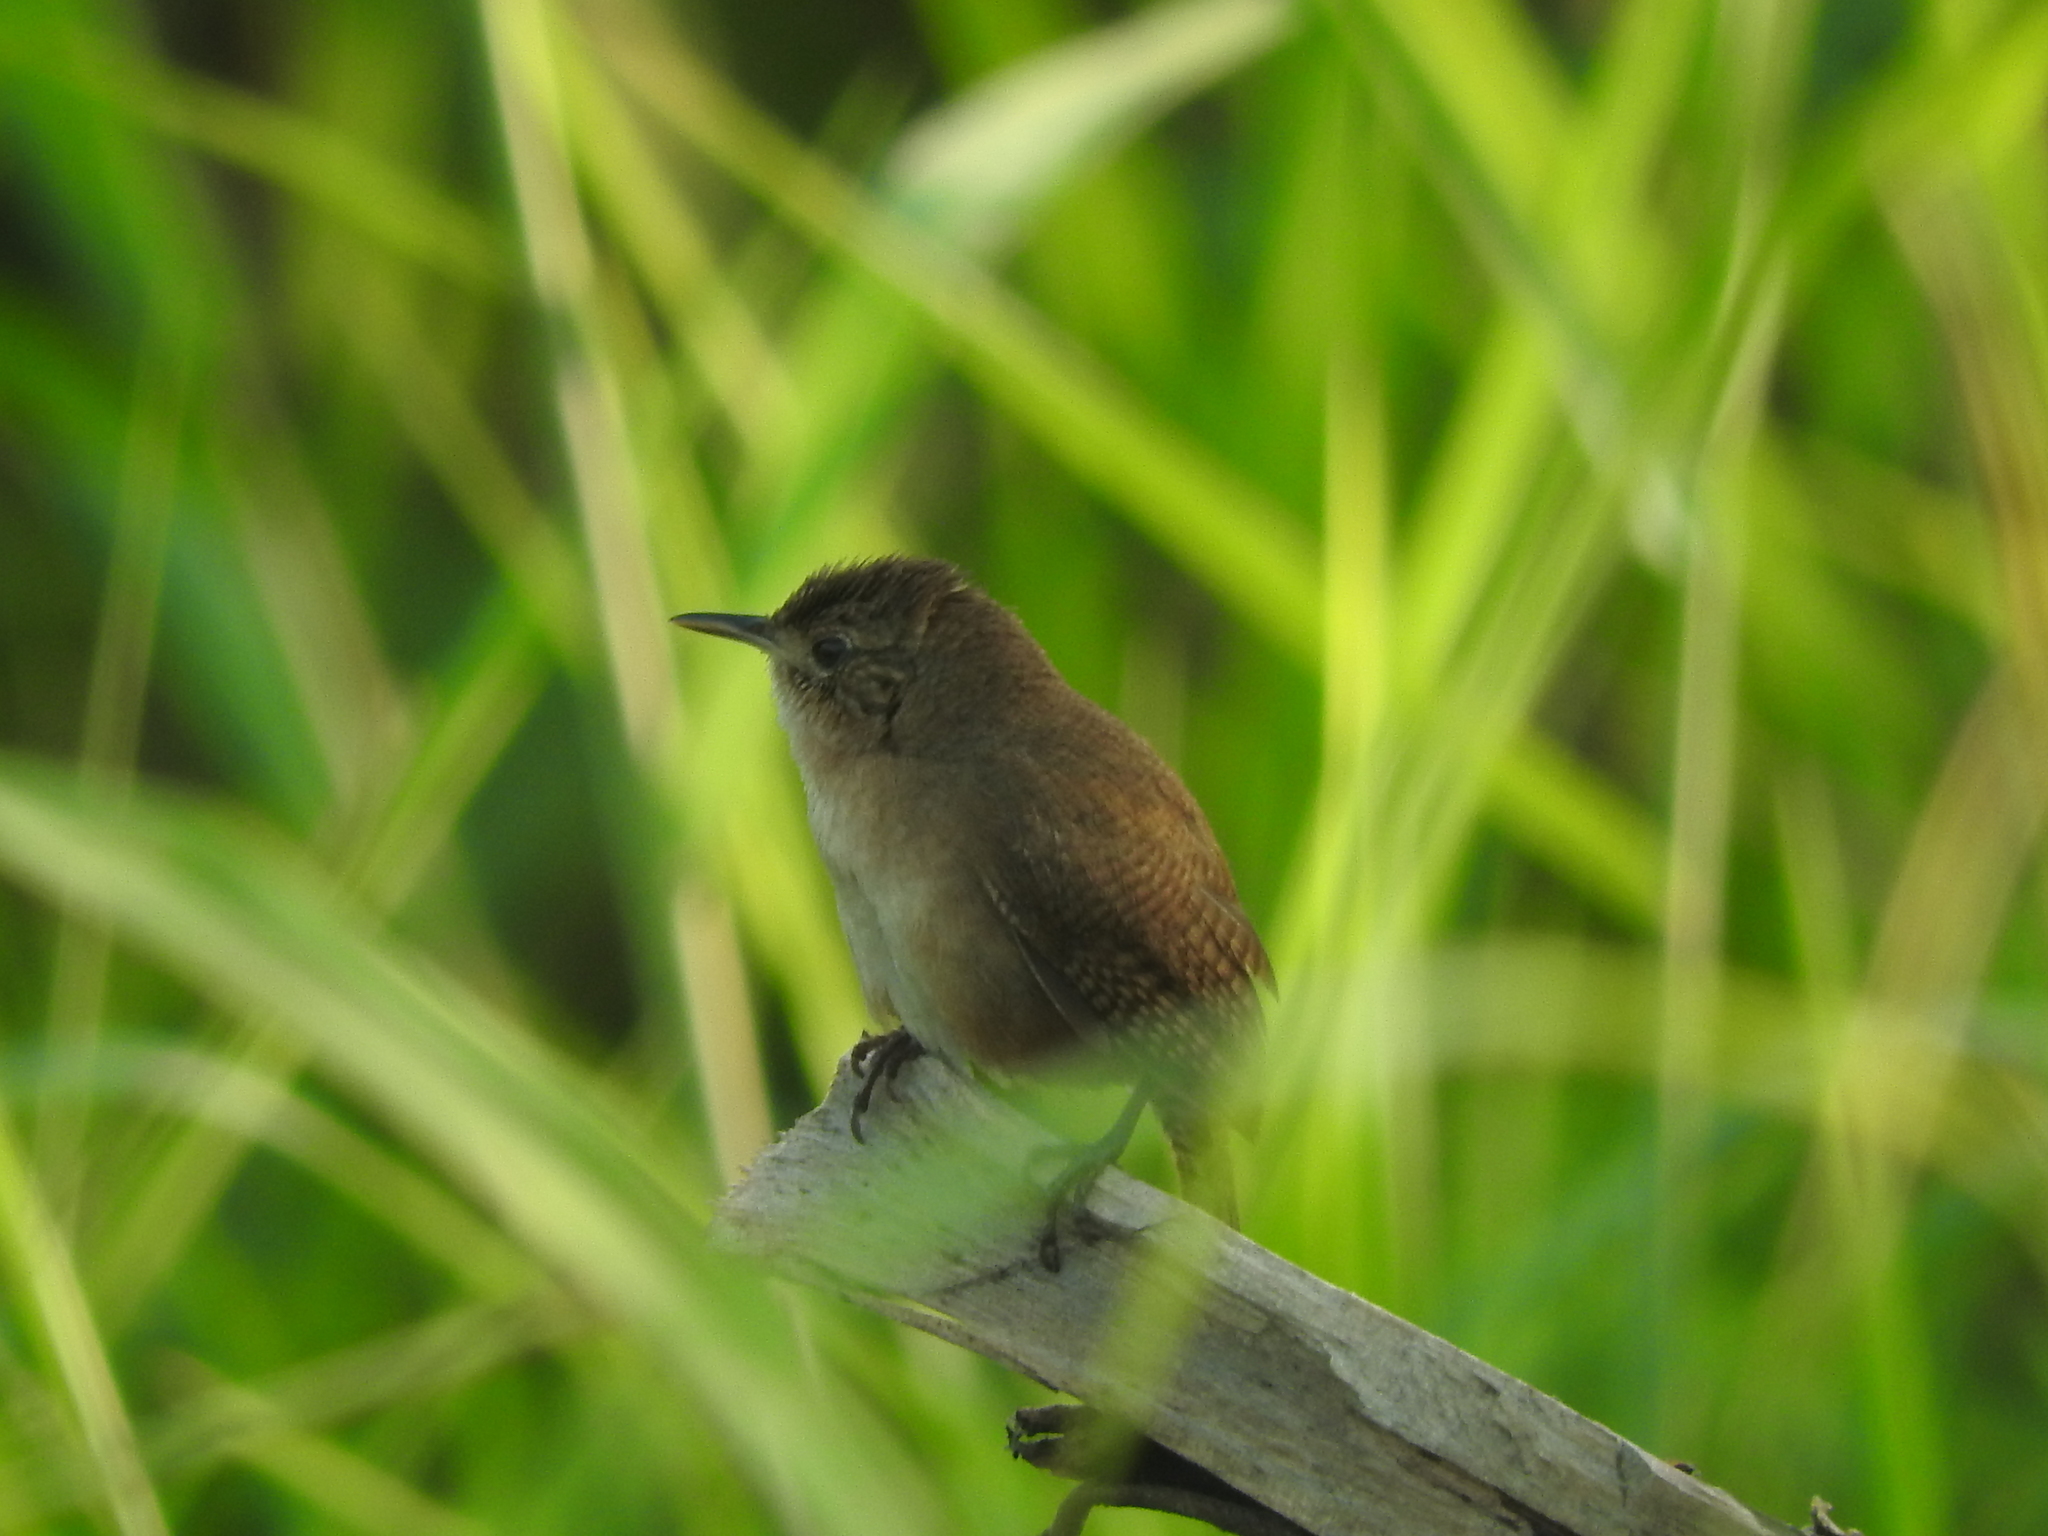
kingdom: Animalia
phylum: Chordata
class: Aves
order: Passeriformes
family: Troglodytidae
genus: Troglodytes
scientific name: Troglodytes aedon
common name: House wren
